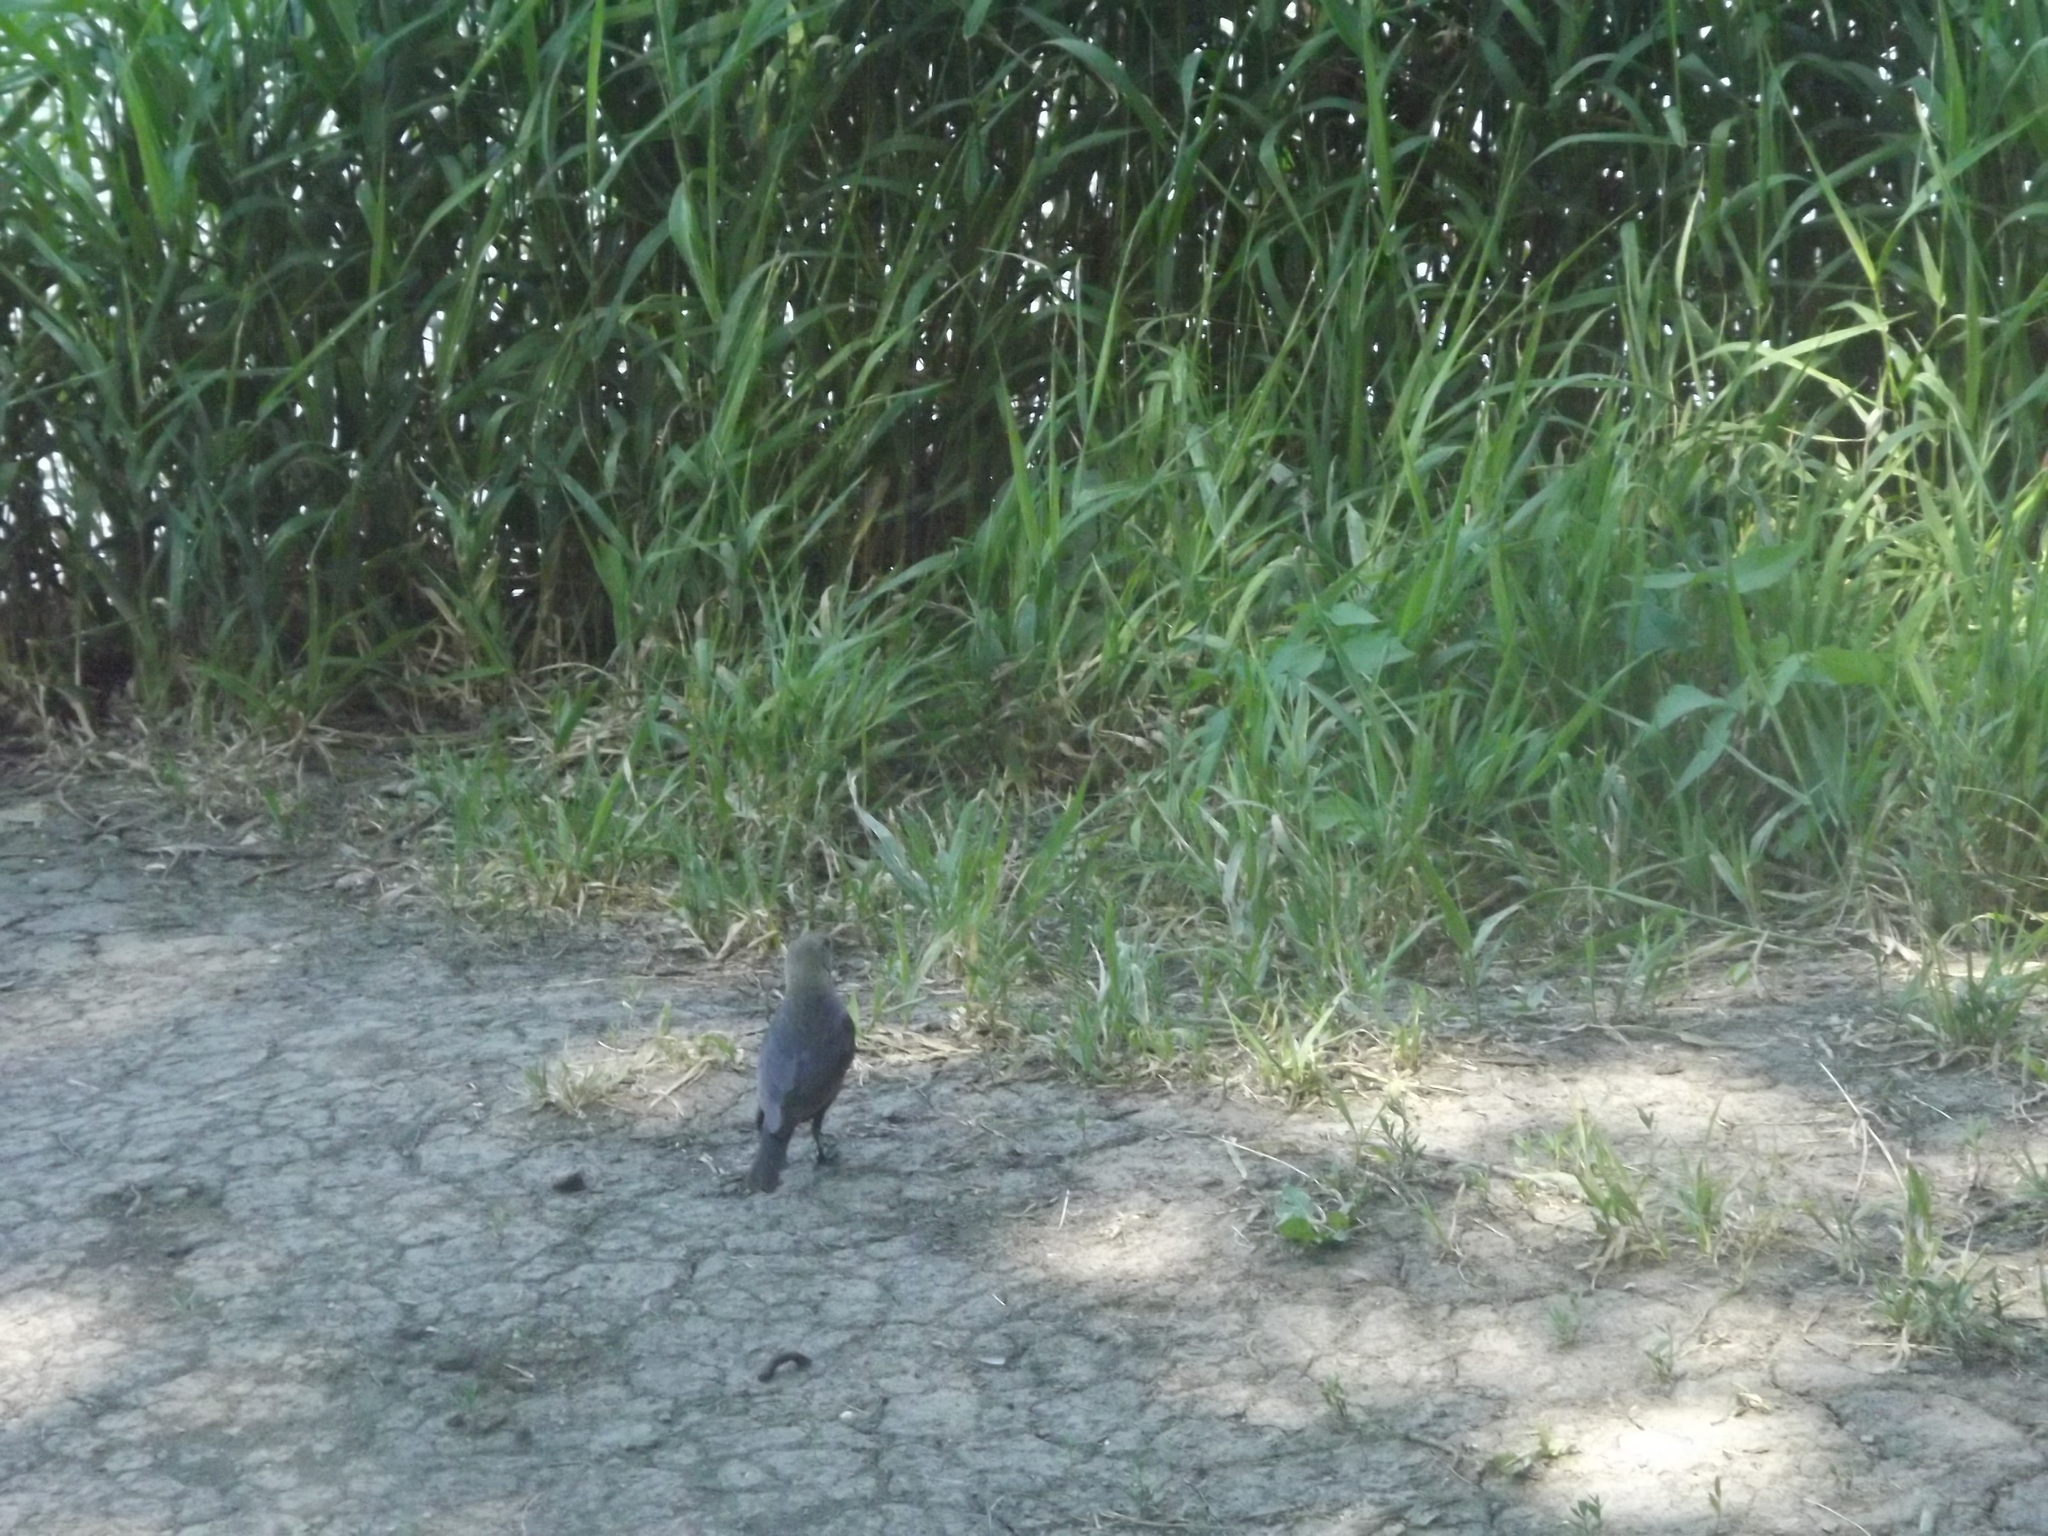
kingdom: Animalia
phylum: Chordata
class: Aves
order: Passeriformes
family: Icteridae
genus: Molothrus
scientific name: Molothrus ater
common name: Brown-headed cowbird
